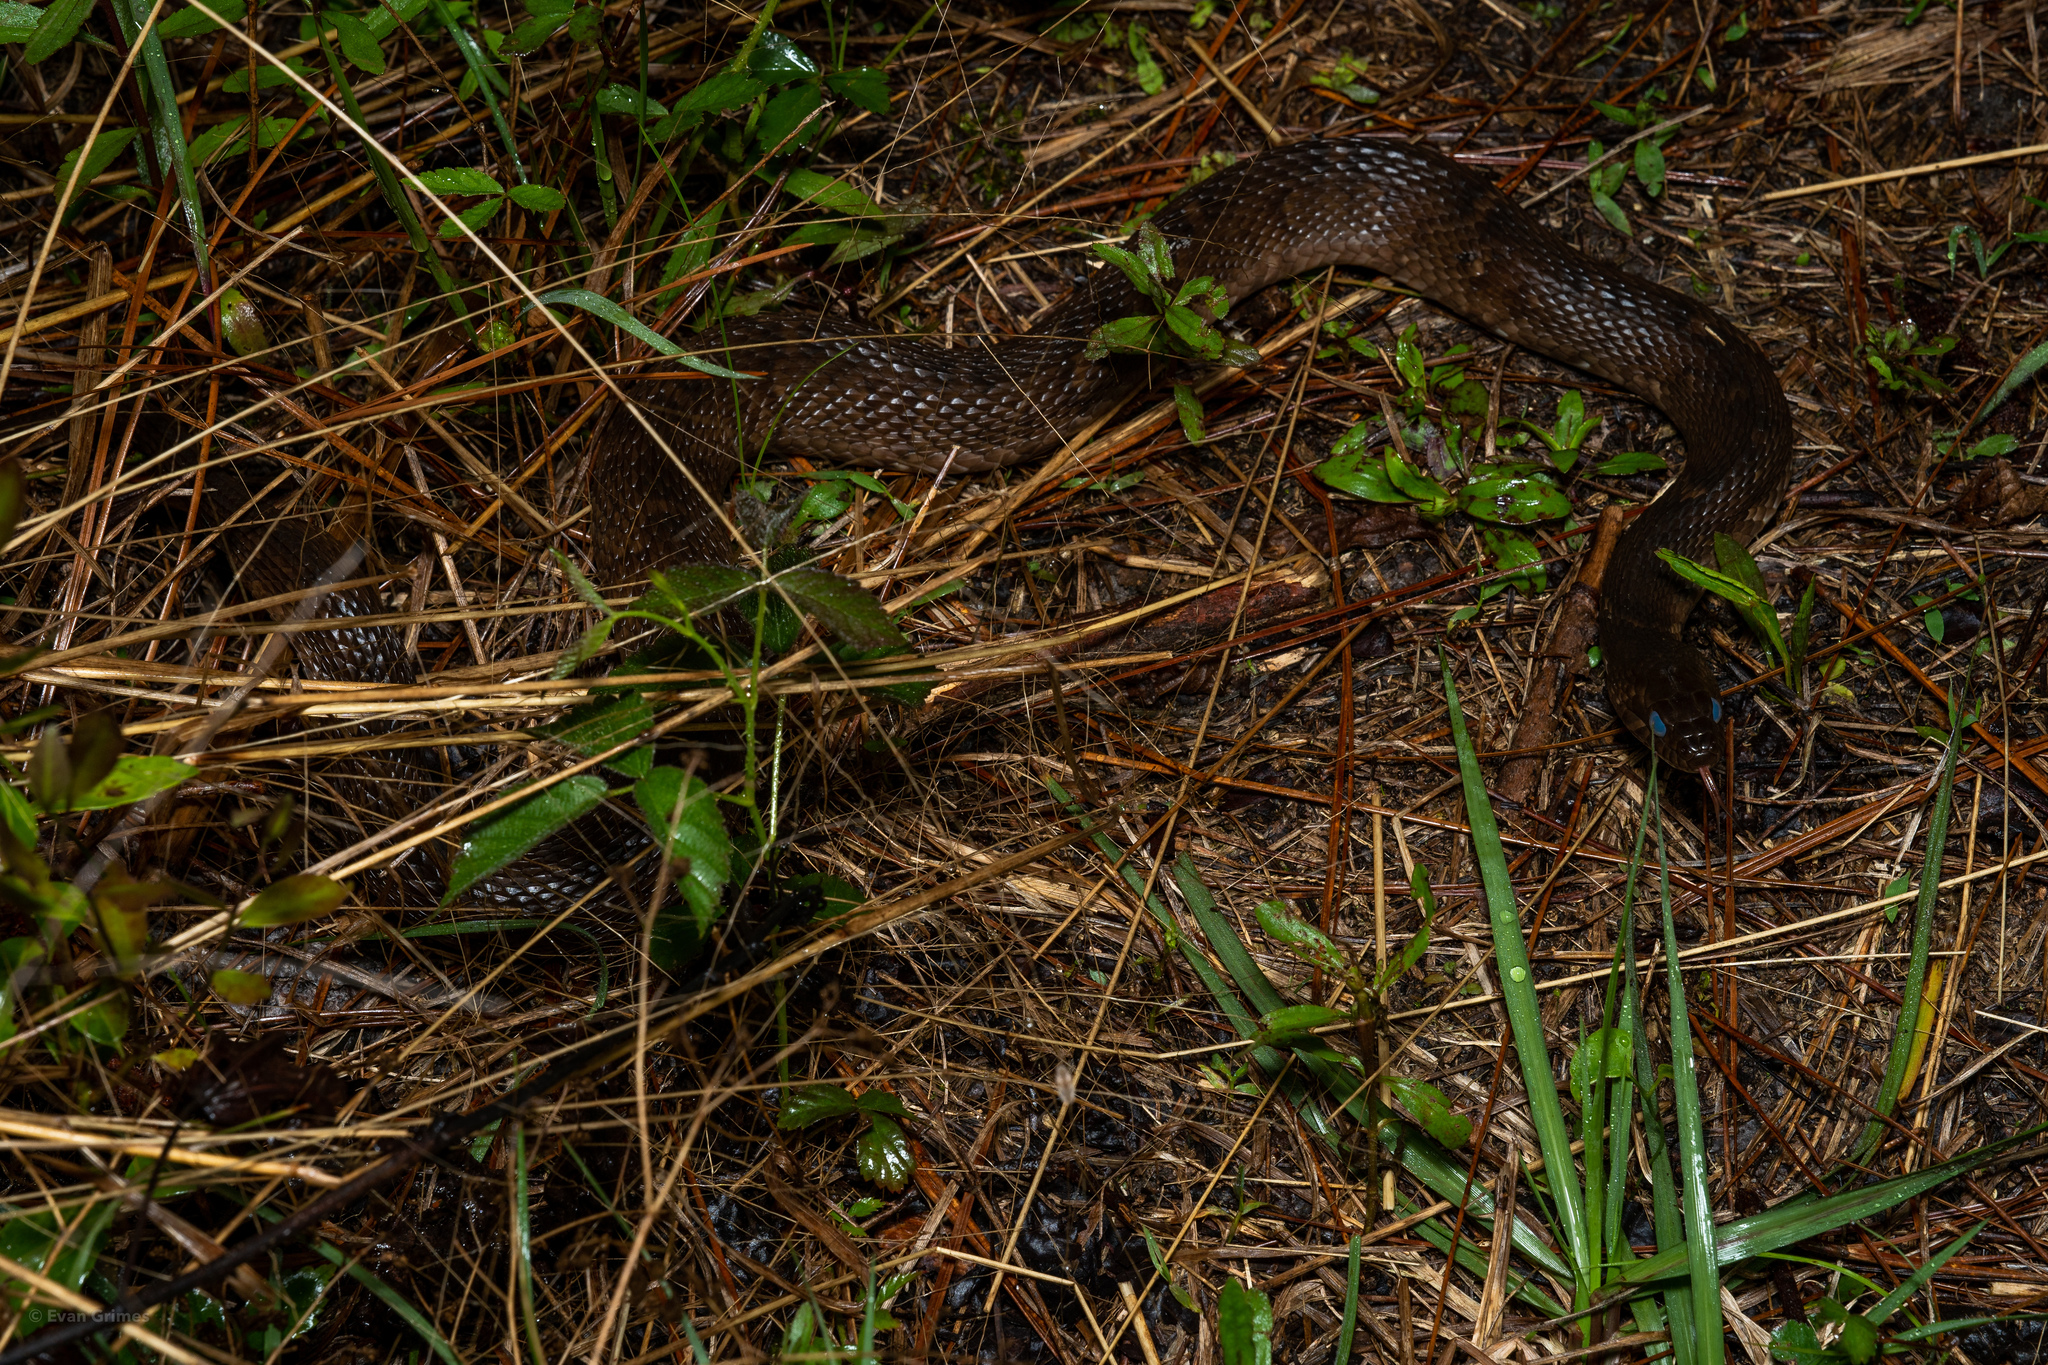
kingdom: Animalia
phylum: Chordata
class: Squamata
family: Colubridae
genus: Nerodia
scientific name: Nerodia fasciata
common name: Southern water snake
